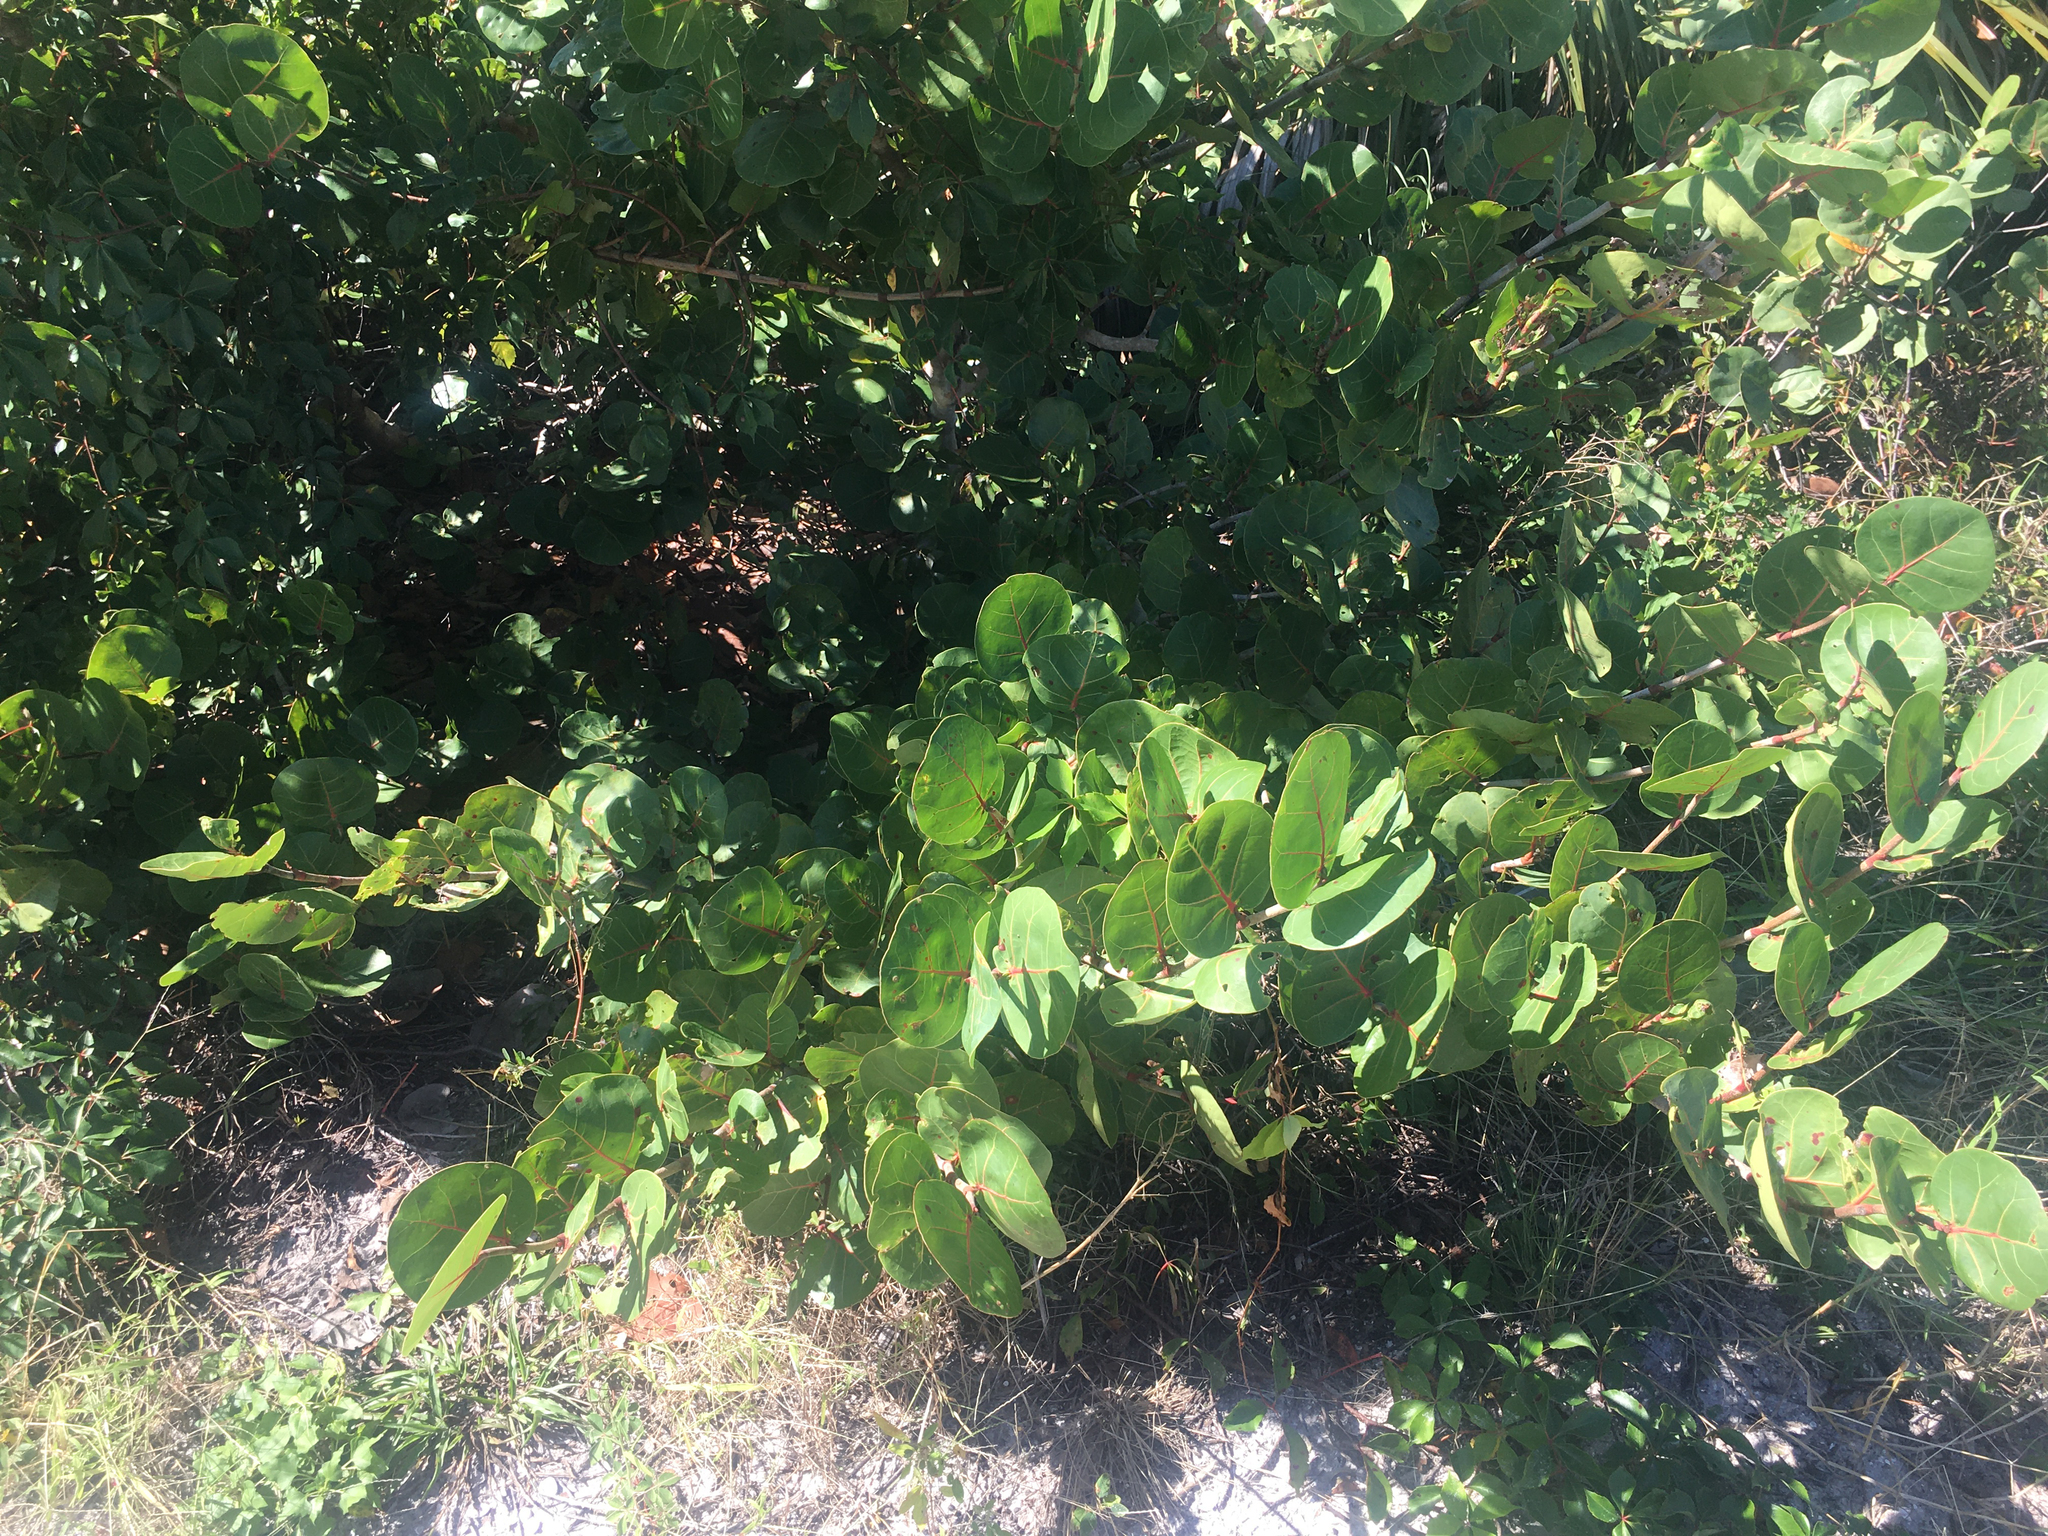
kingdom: Plantae
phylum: Tracheophyta
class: Magnoliopsida
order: Caryophyllales
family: Polygonaceae
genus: Coccoloba
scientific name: Coccoloba uvifera
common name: Seagrape
